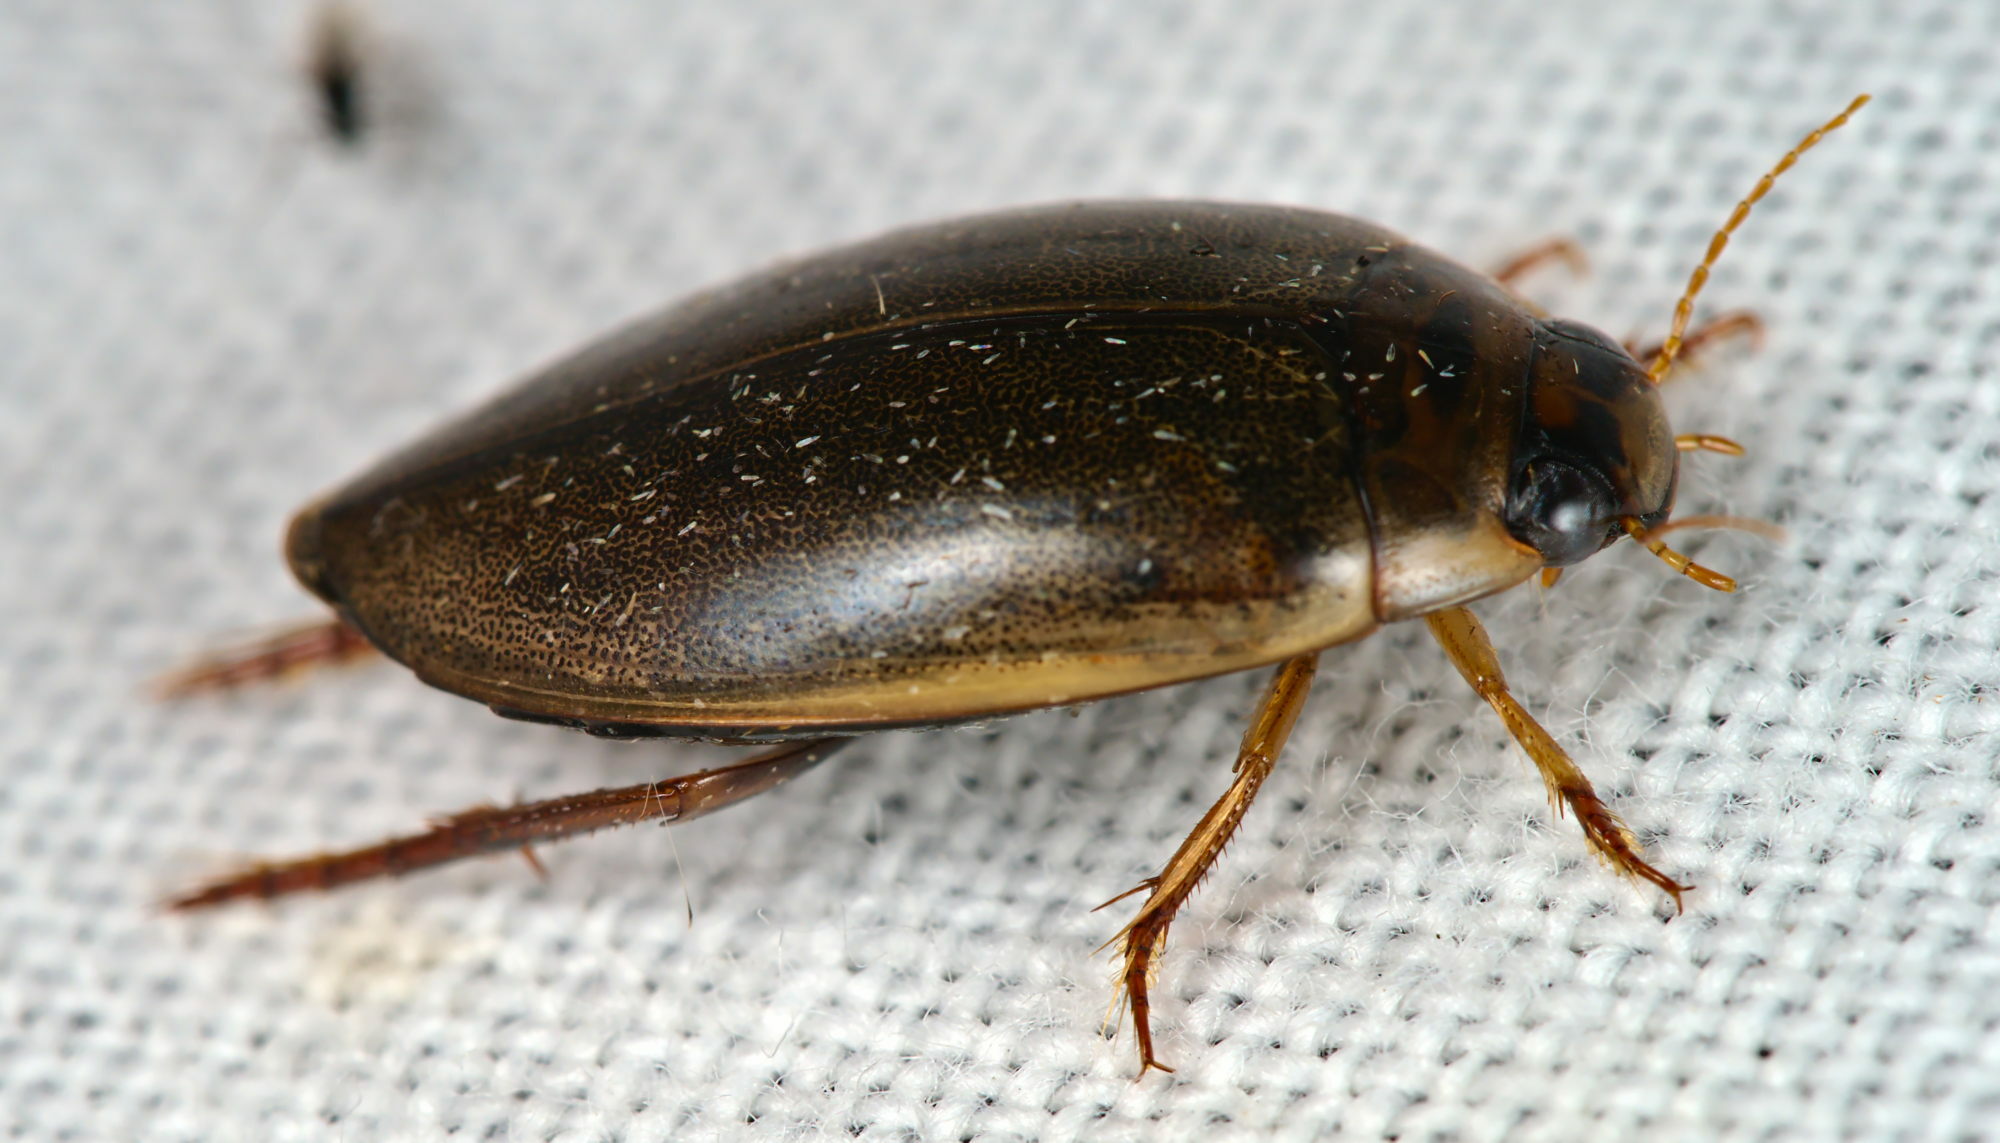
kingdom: Animalia
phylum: Arthropoda
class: Insecta
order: Coleoptera
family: Dytiscidae
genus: Rhantus
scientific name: Rhantus suturalis
